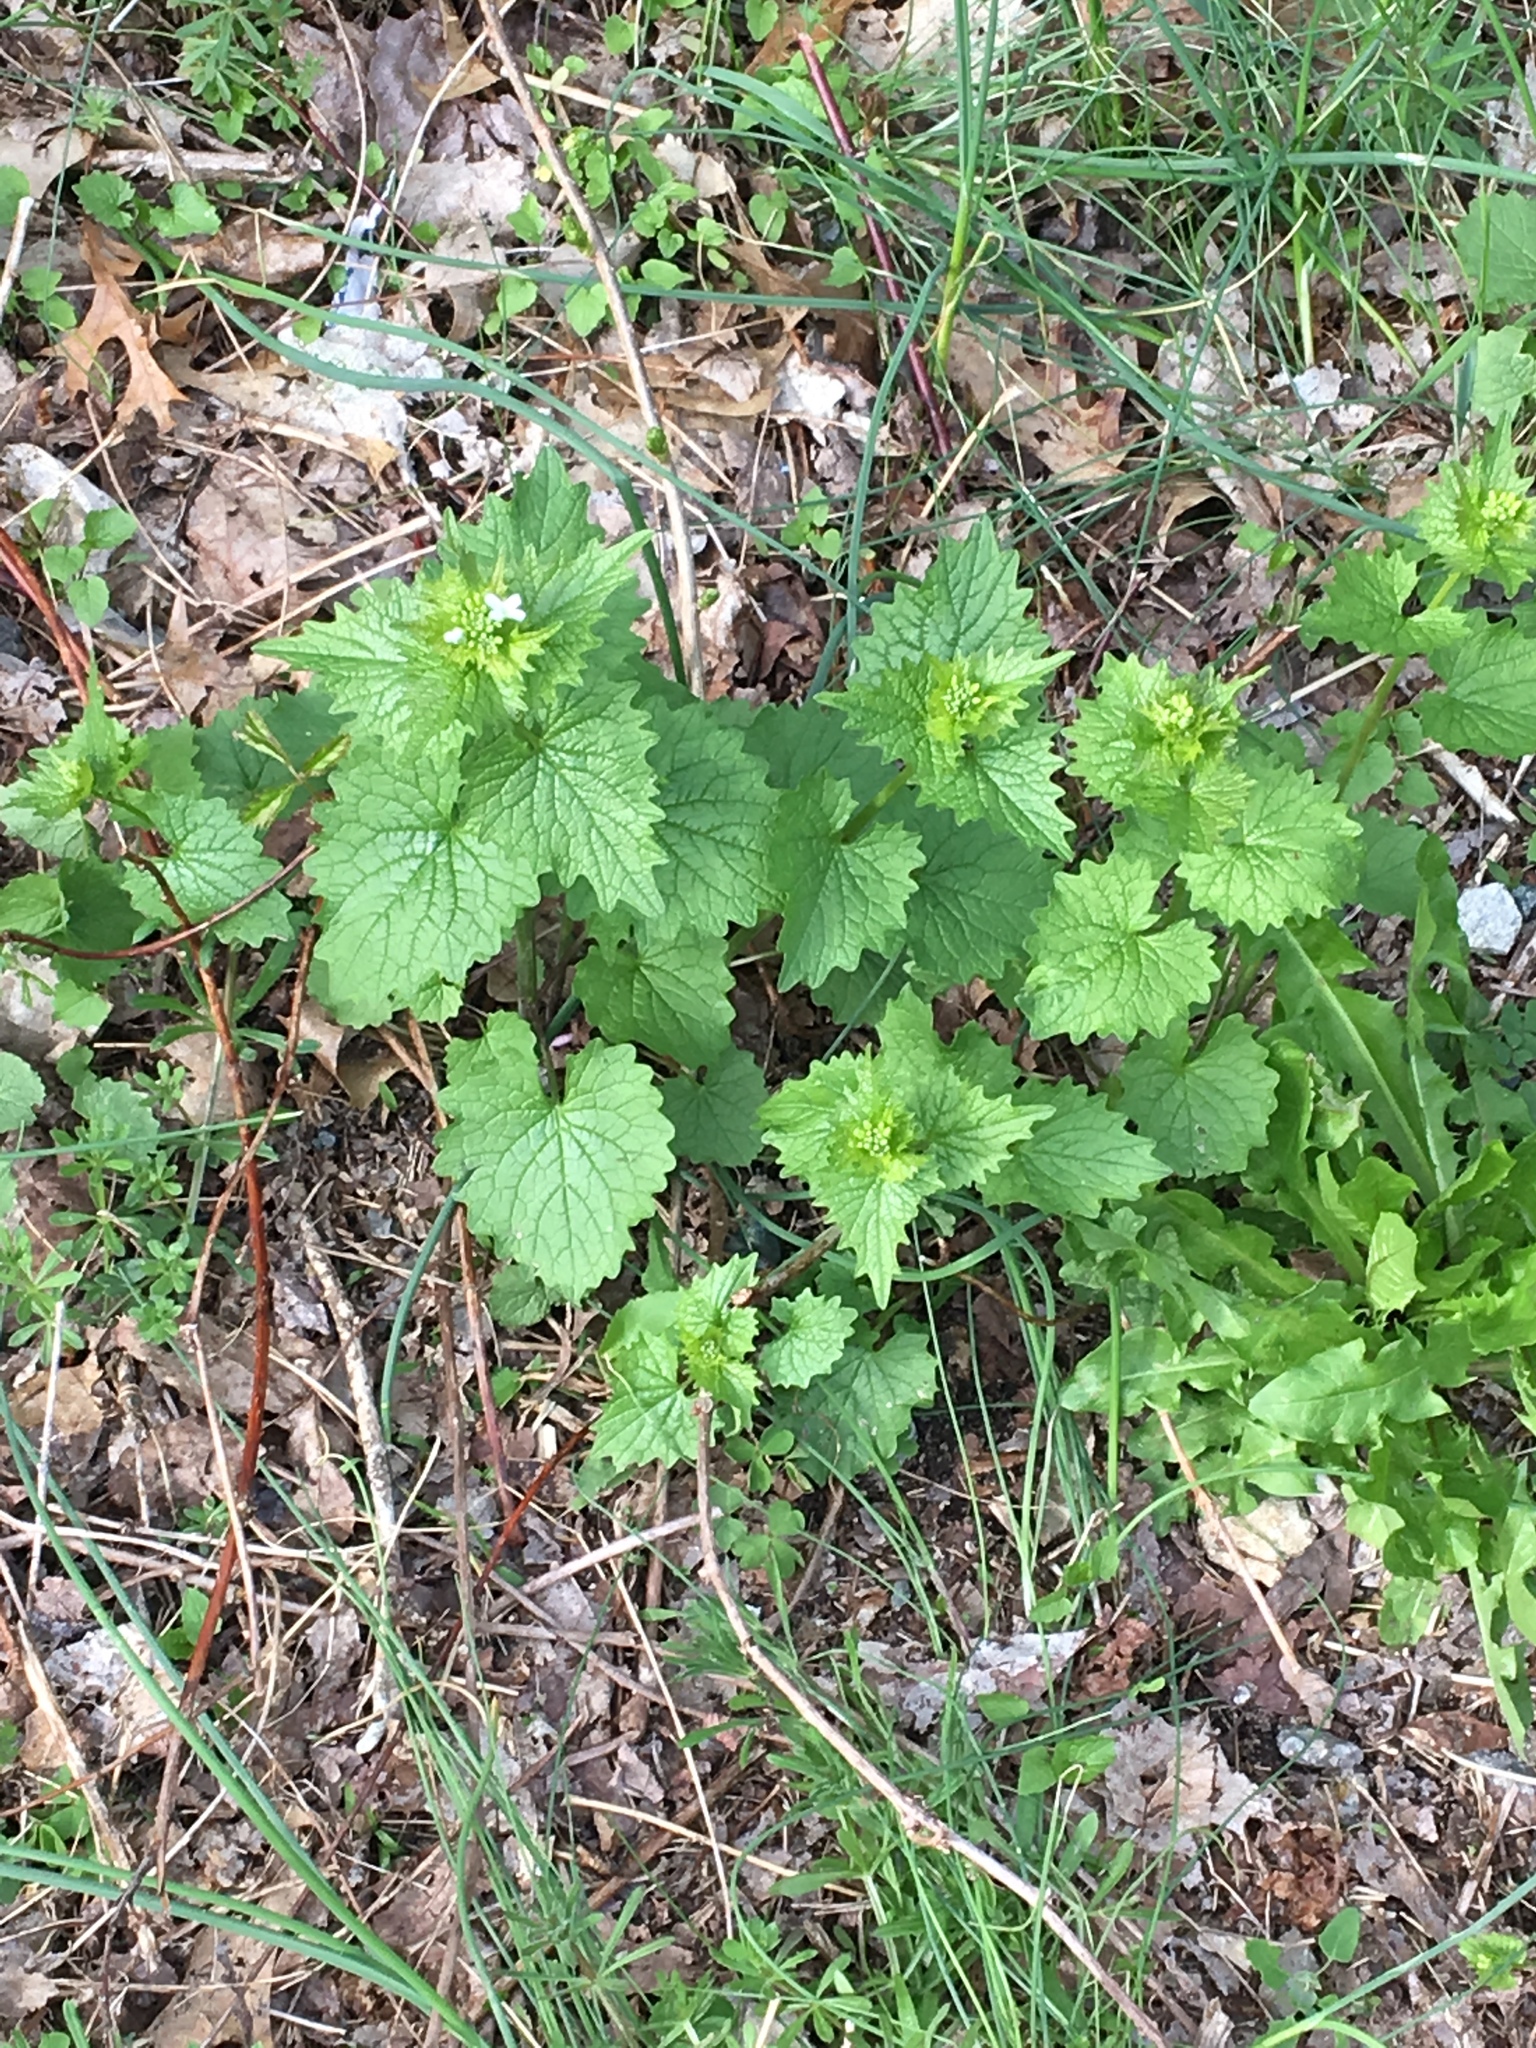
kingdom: Plantae
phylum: Tracheophyta
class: Magnoliopsida
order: Brassicales
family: Brassicaceae
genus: Alliaria
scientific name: Alliaria petiolata
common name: Garlic mustard
